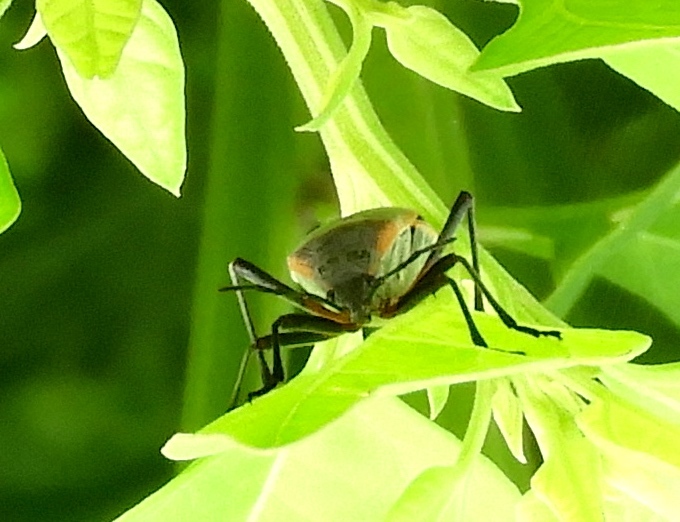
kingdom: Animalia
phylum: Arthropoda
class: Insecta
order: Hemiptera
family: Largidae
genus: Largus
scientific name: Largus
